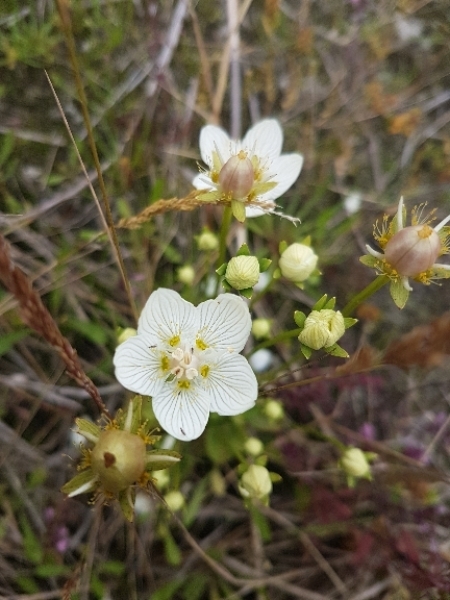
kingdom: Plantae
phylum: Tracheophyta
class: Magnoliopsida
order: Celastrales
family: Parnassiaceae
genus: Parnassia
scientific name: Parnassia palustris
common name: Grass-of-parnassus
